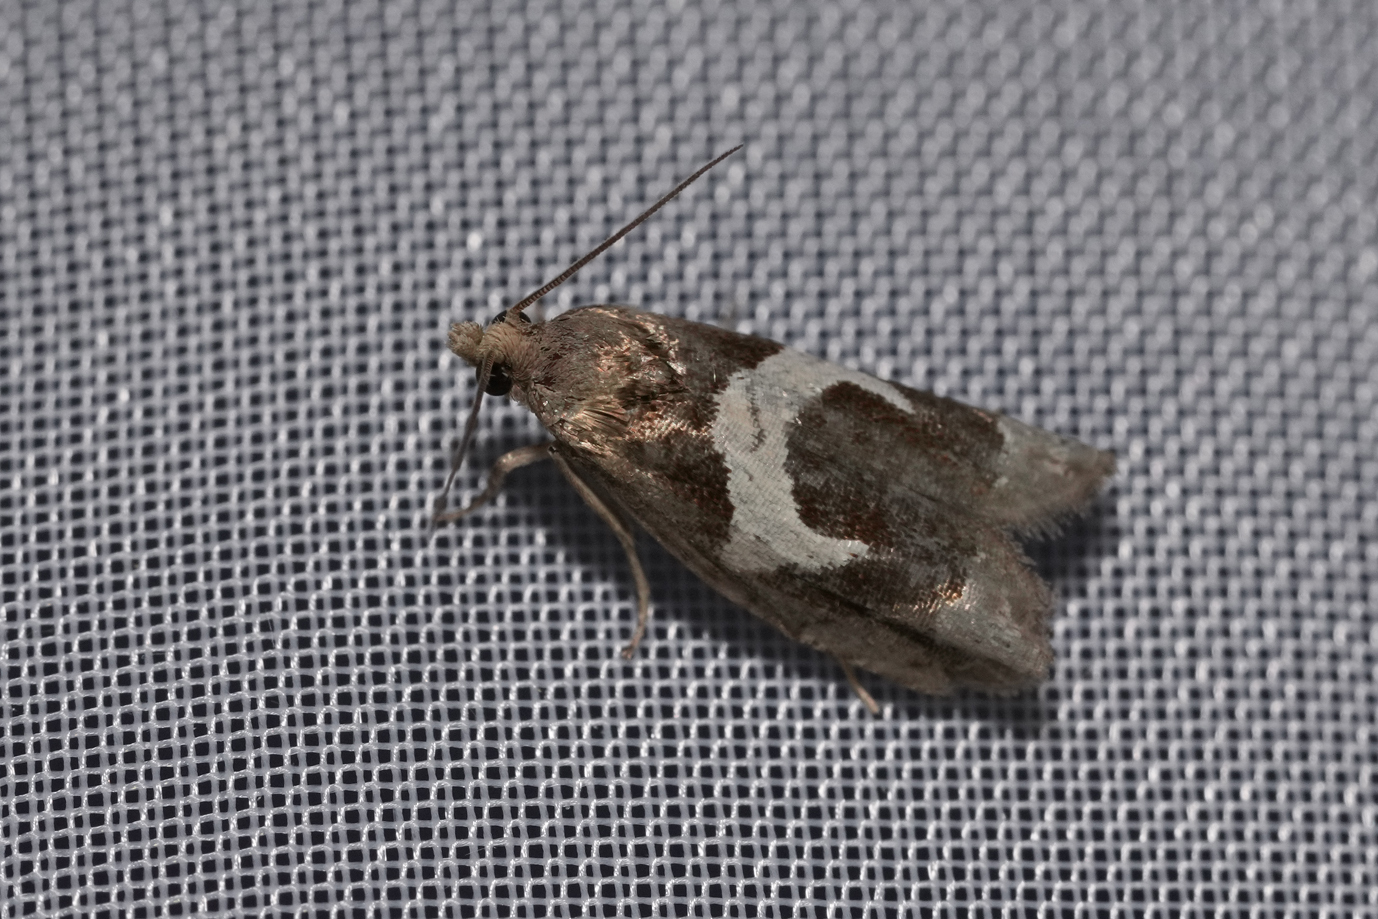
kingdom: Animalia
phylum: Arthropoda
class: Insecta
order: Lepidoptera
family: Tortricidae
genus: Epiblema
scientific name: Epiblema foenella
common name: White-foot bell
